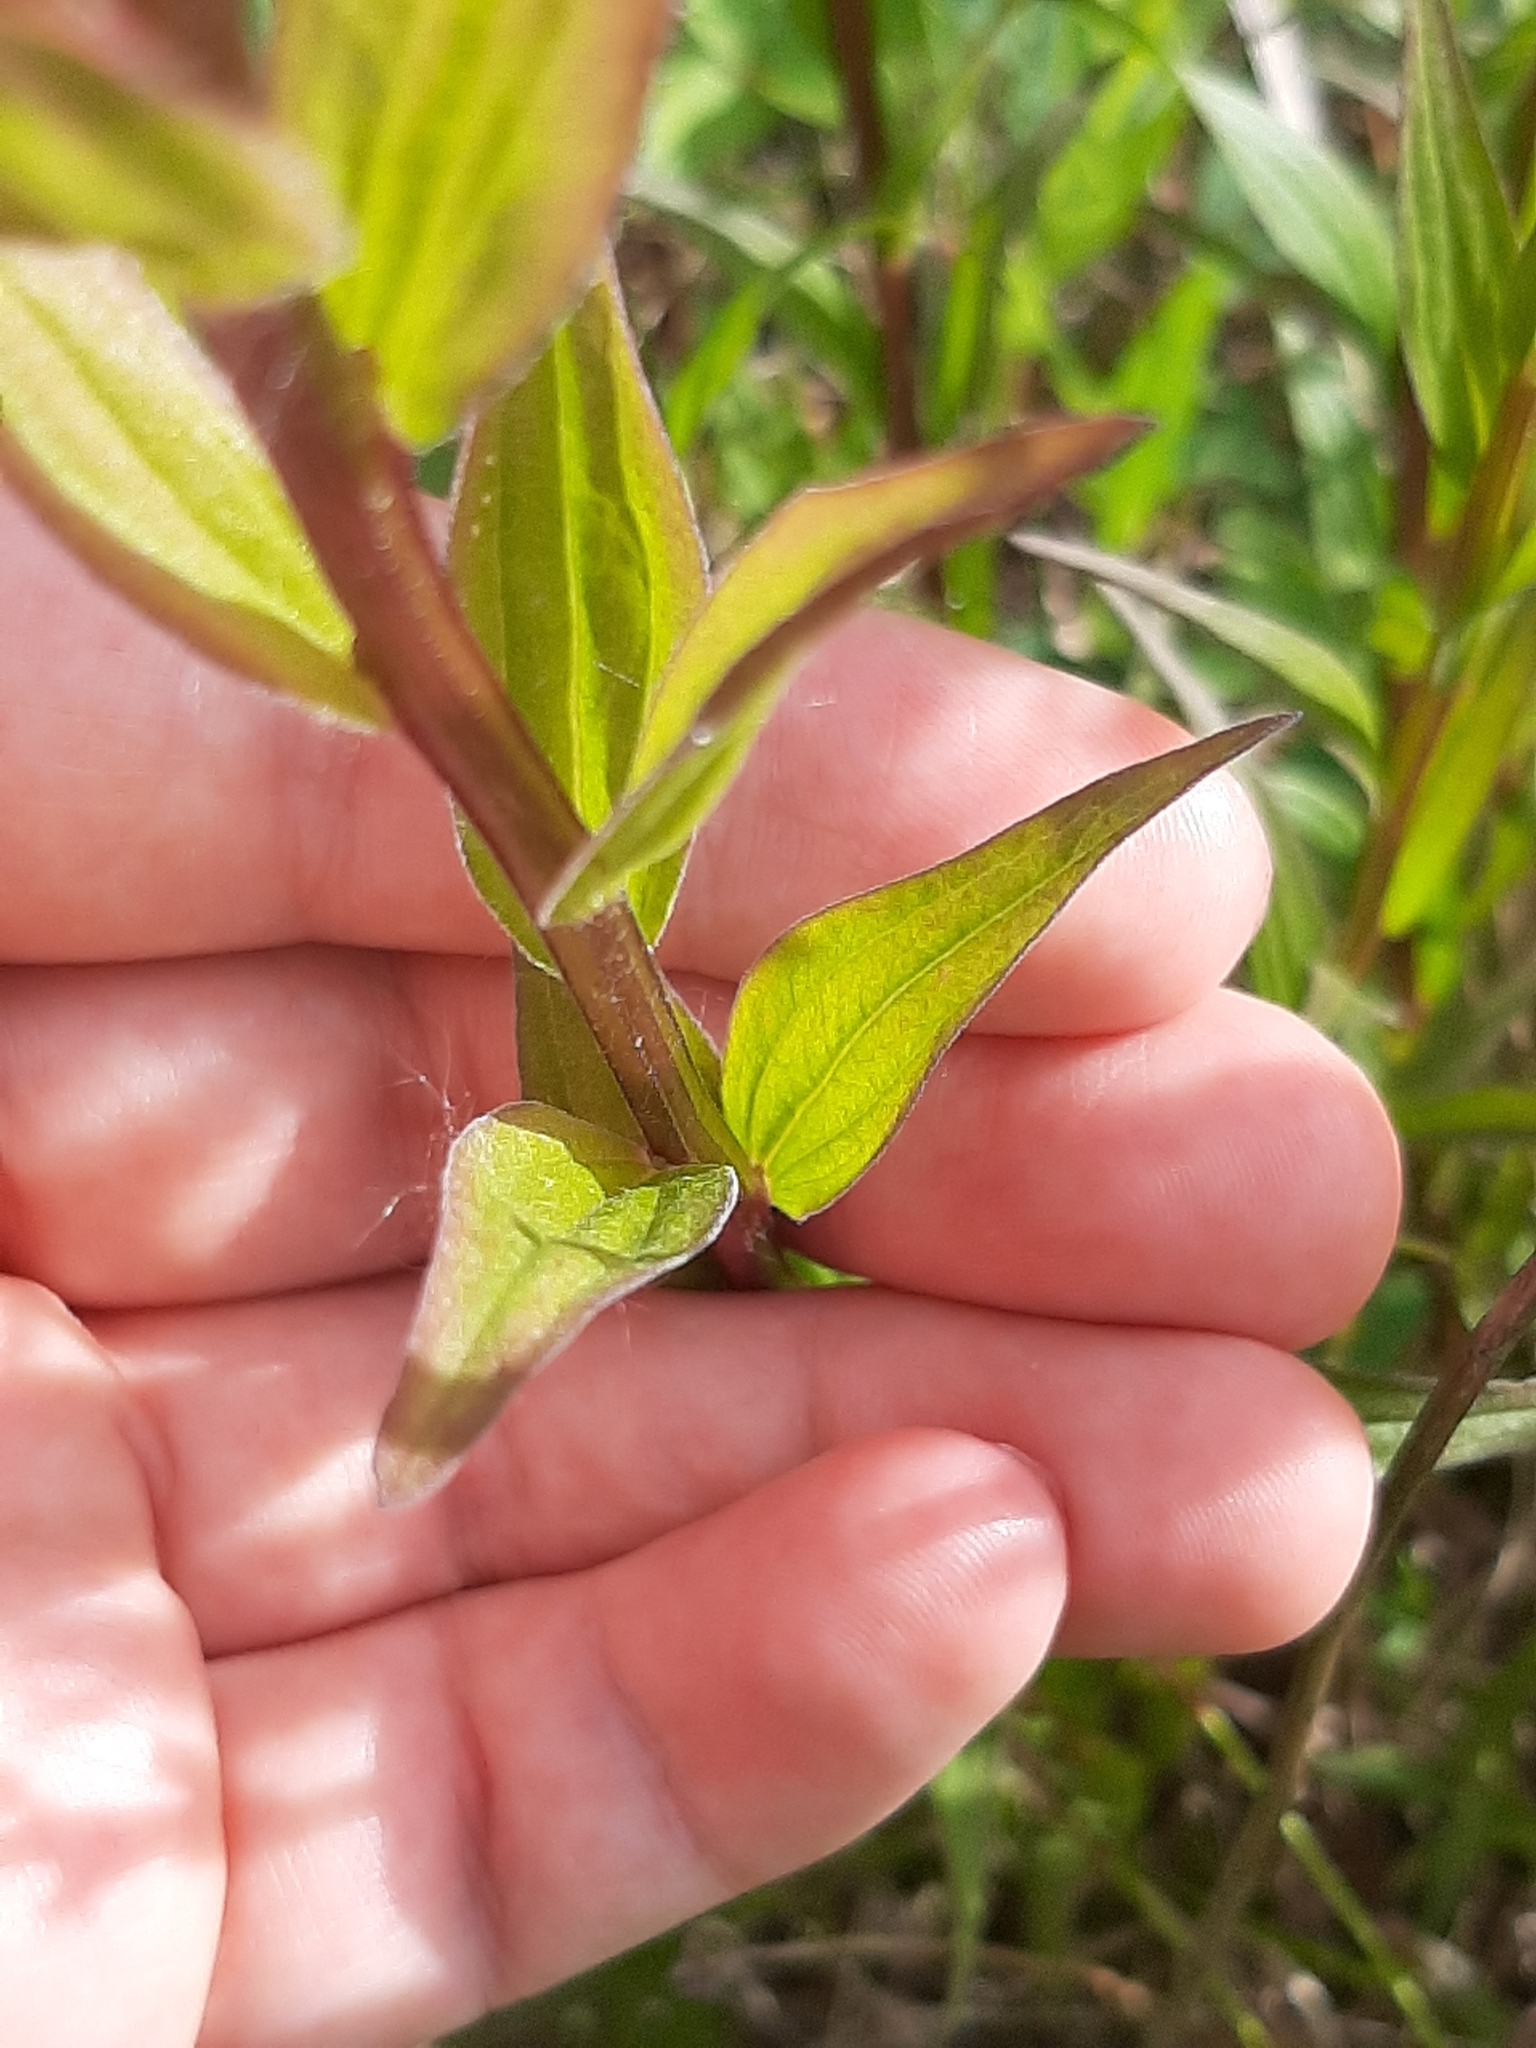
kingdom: Plantae
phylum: Tracheophyta
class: Magnoliopsida
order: Lamiales
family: Orobanchaceae
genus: Castilleja
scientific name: Castilleja miniata
